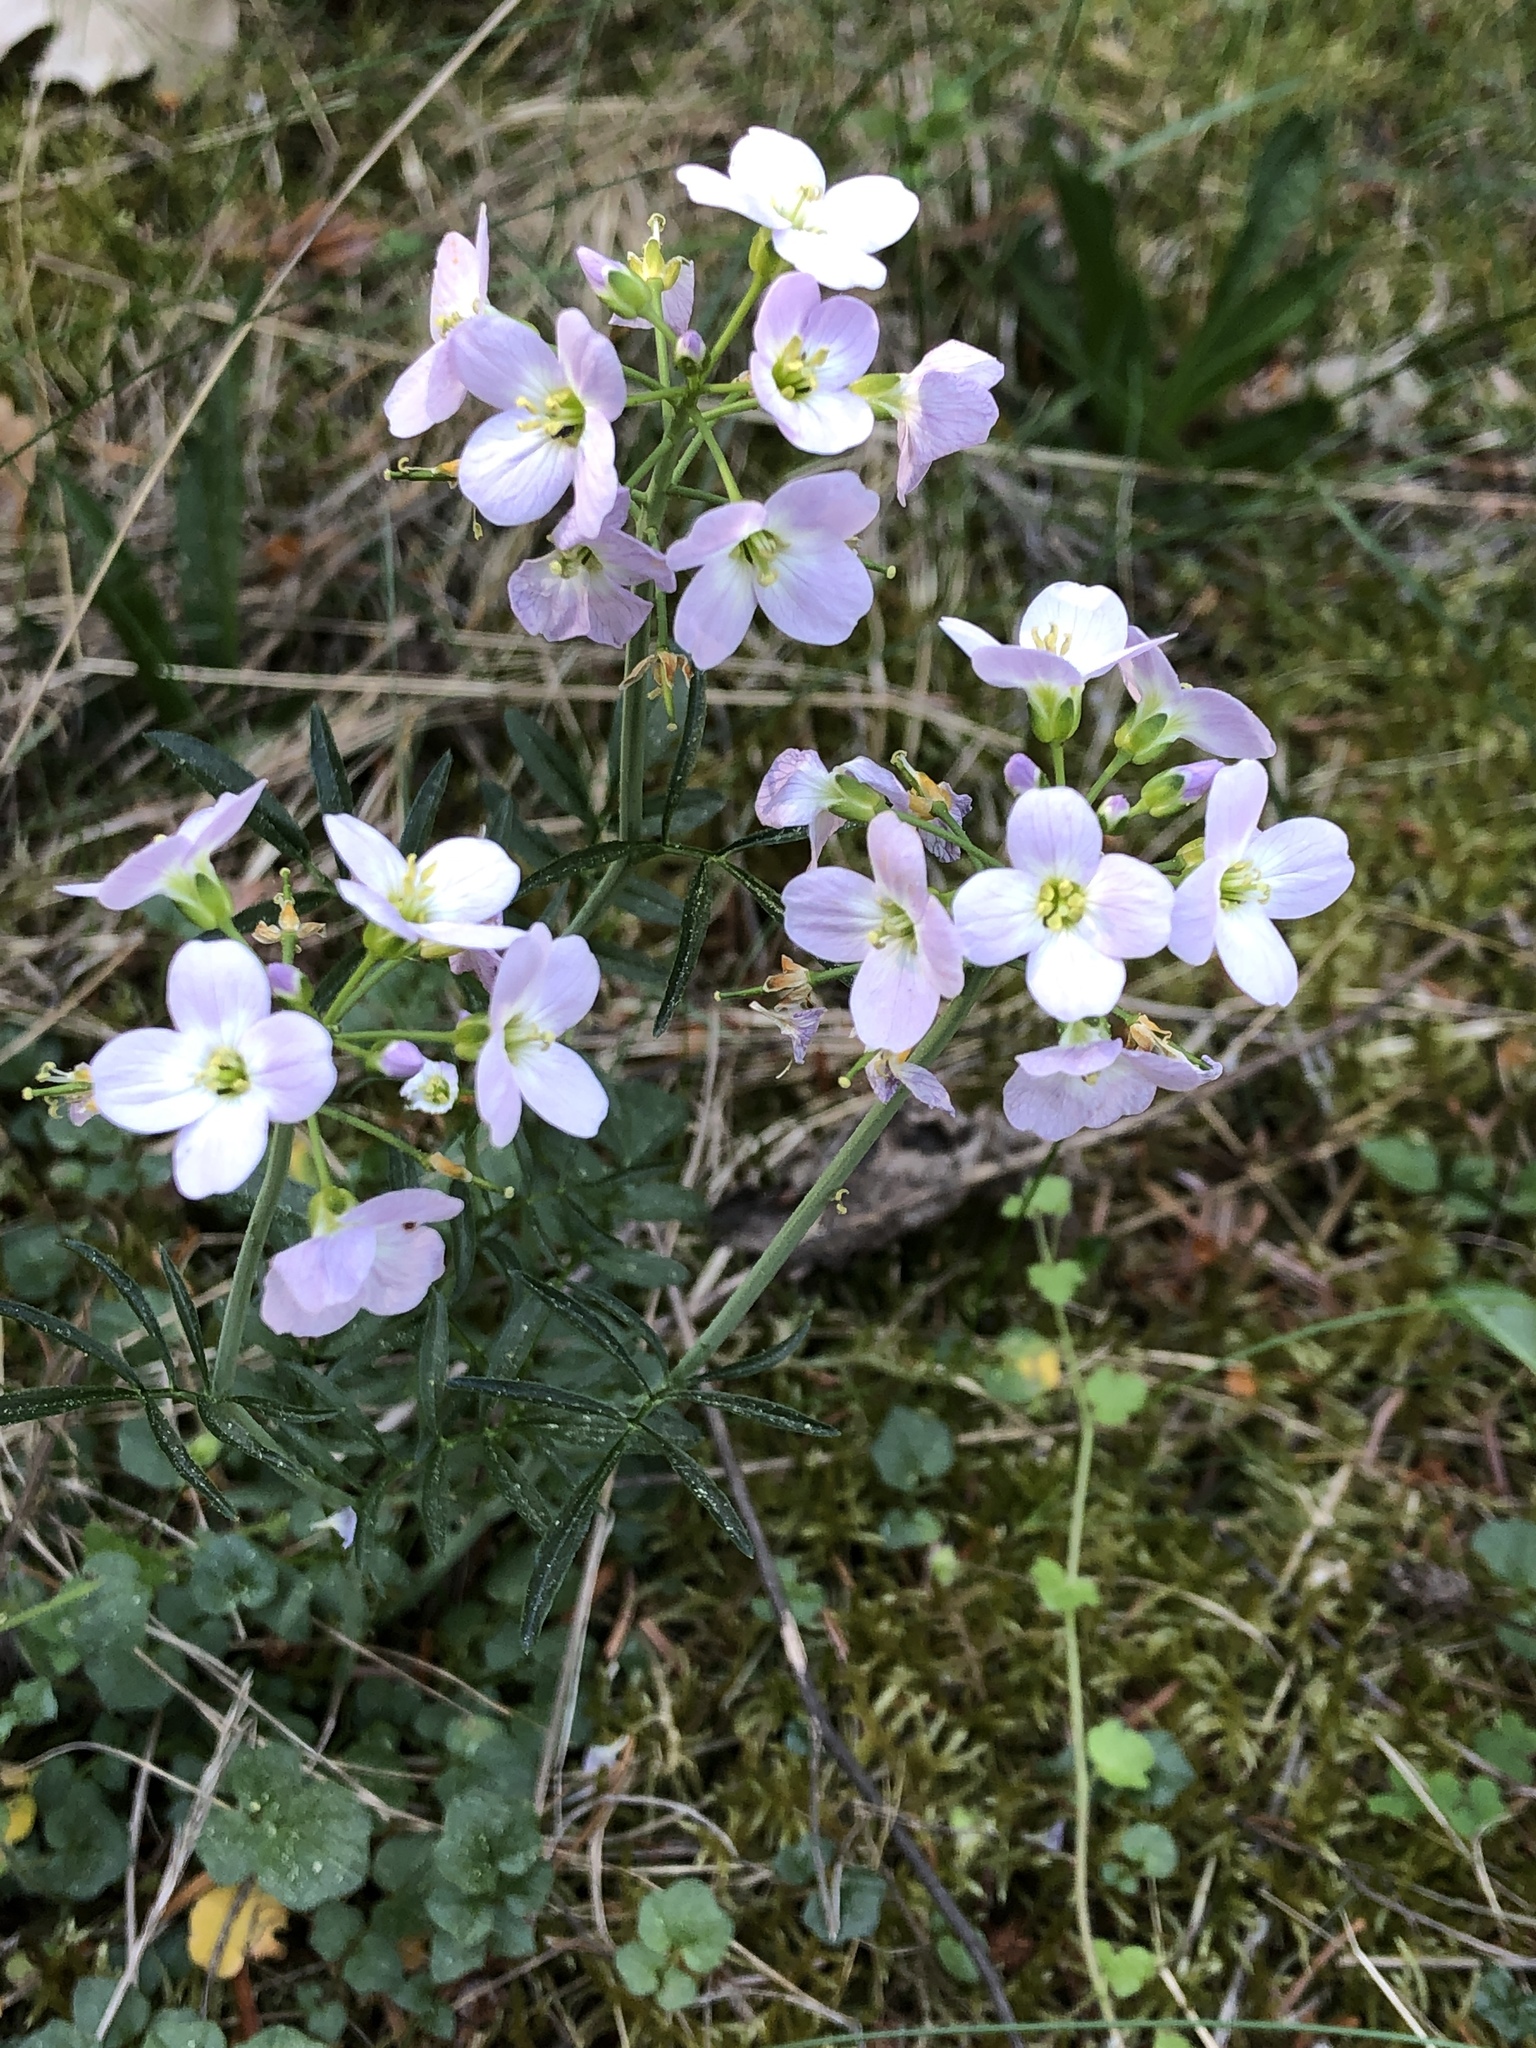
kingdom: Plantae
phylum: Tracheophyta
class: Magnoliopsida
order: Brassicales
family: Brassicaceae
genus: Cardamine
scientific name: Cardamine pratensis
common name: Cuckoo flower
